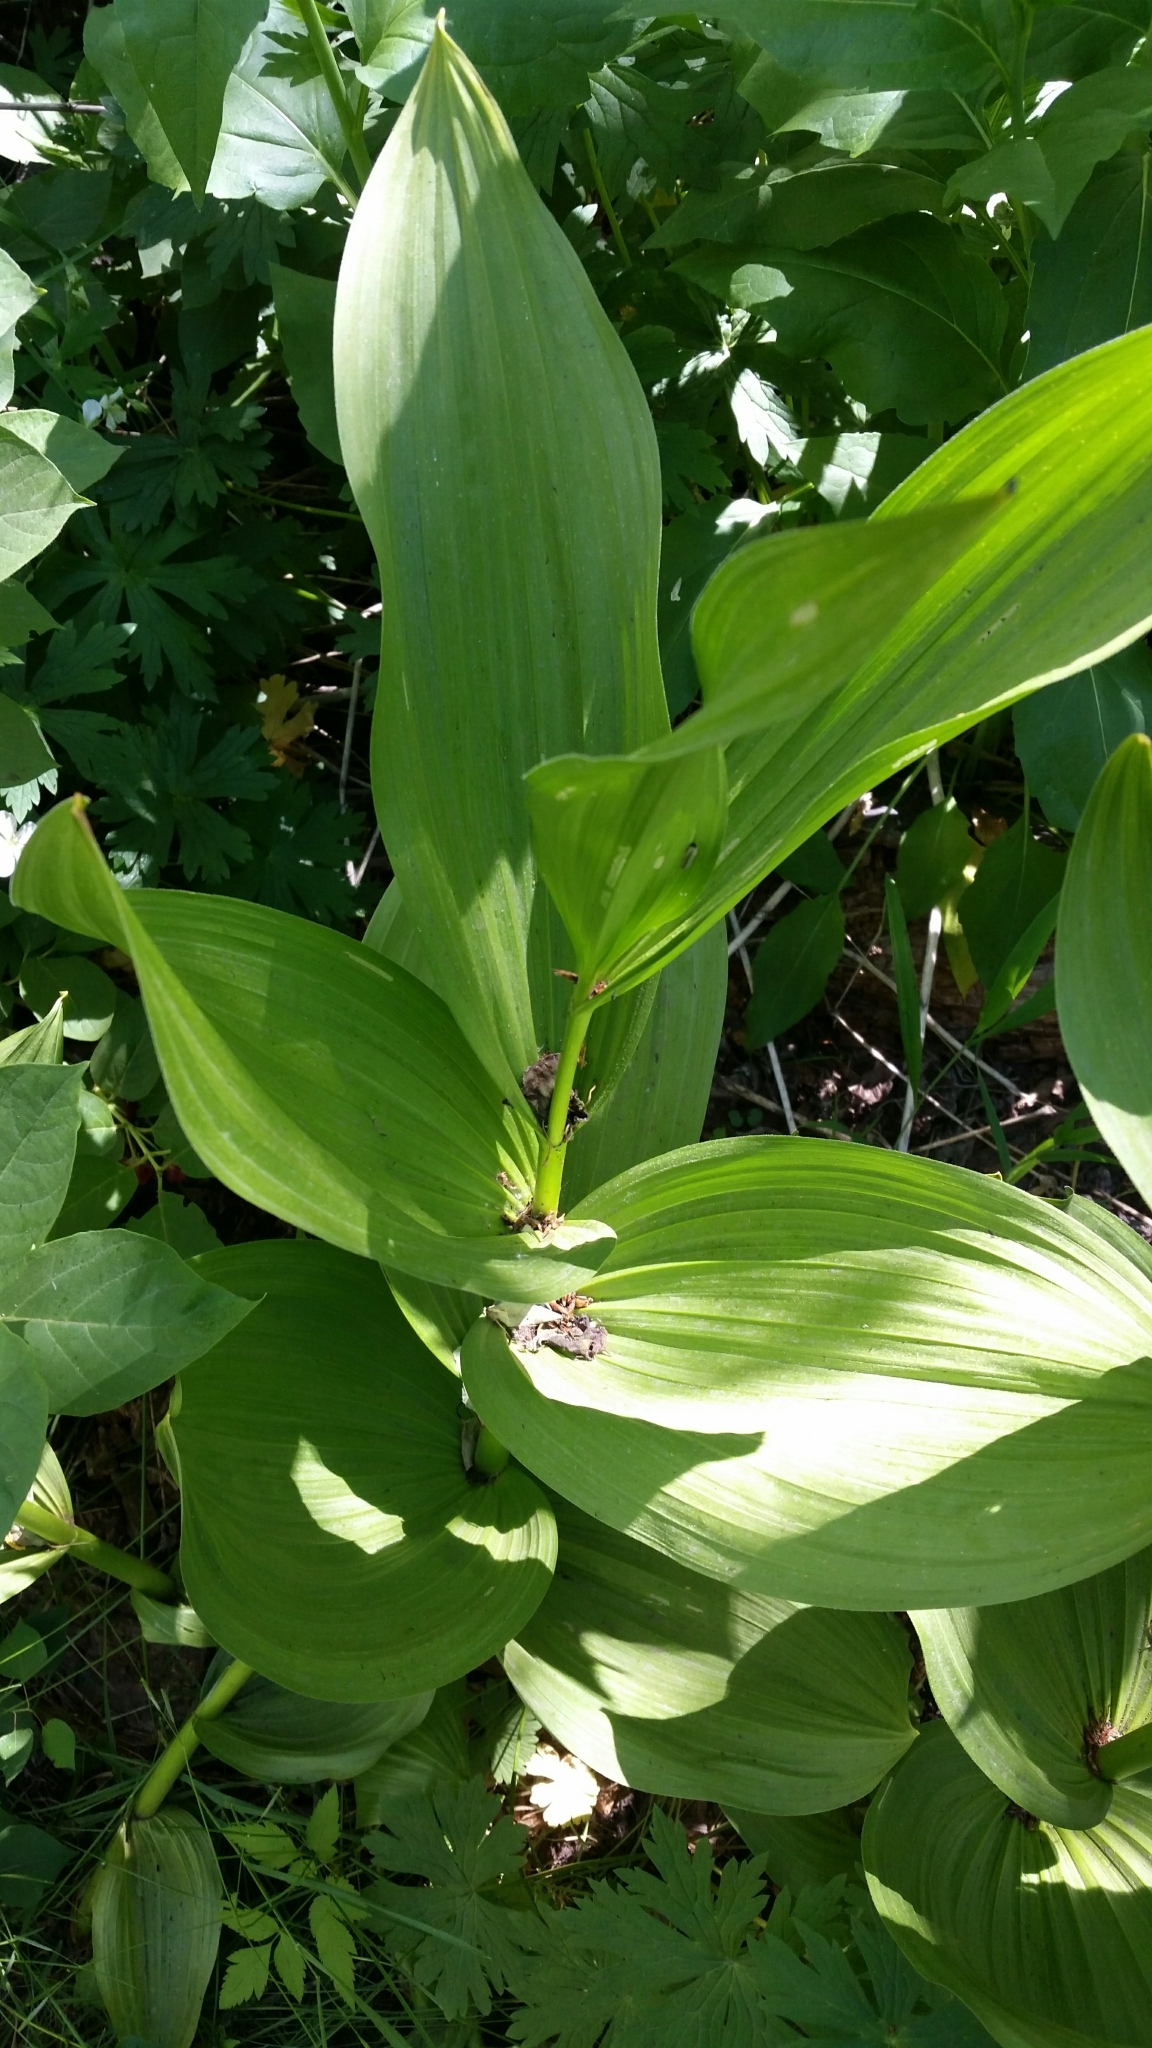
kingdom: Plantae
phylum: Tracheophyta
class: Liliopsida
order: Liliales
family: Melanthiaceae
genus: Veratrum
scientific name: Veratrum californicum
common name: California veratrum
